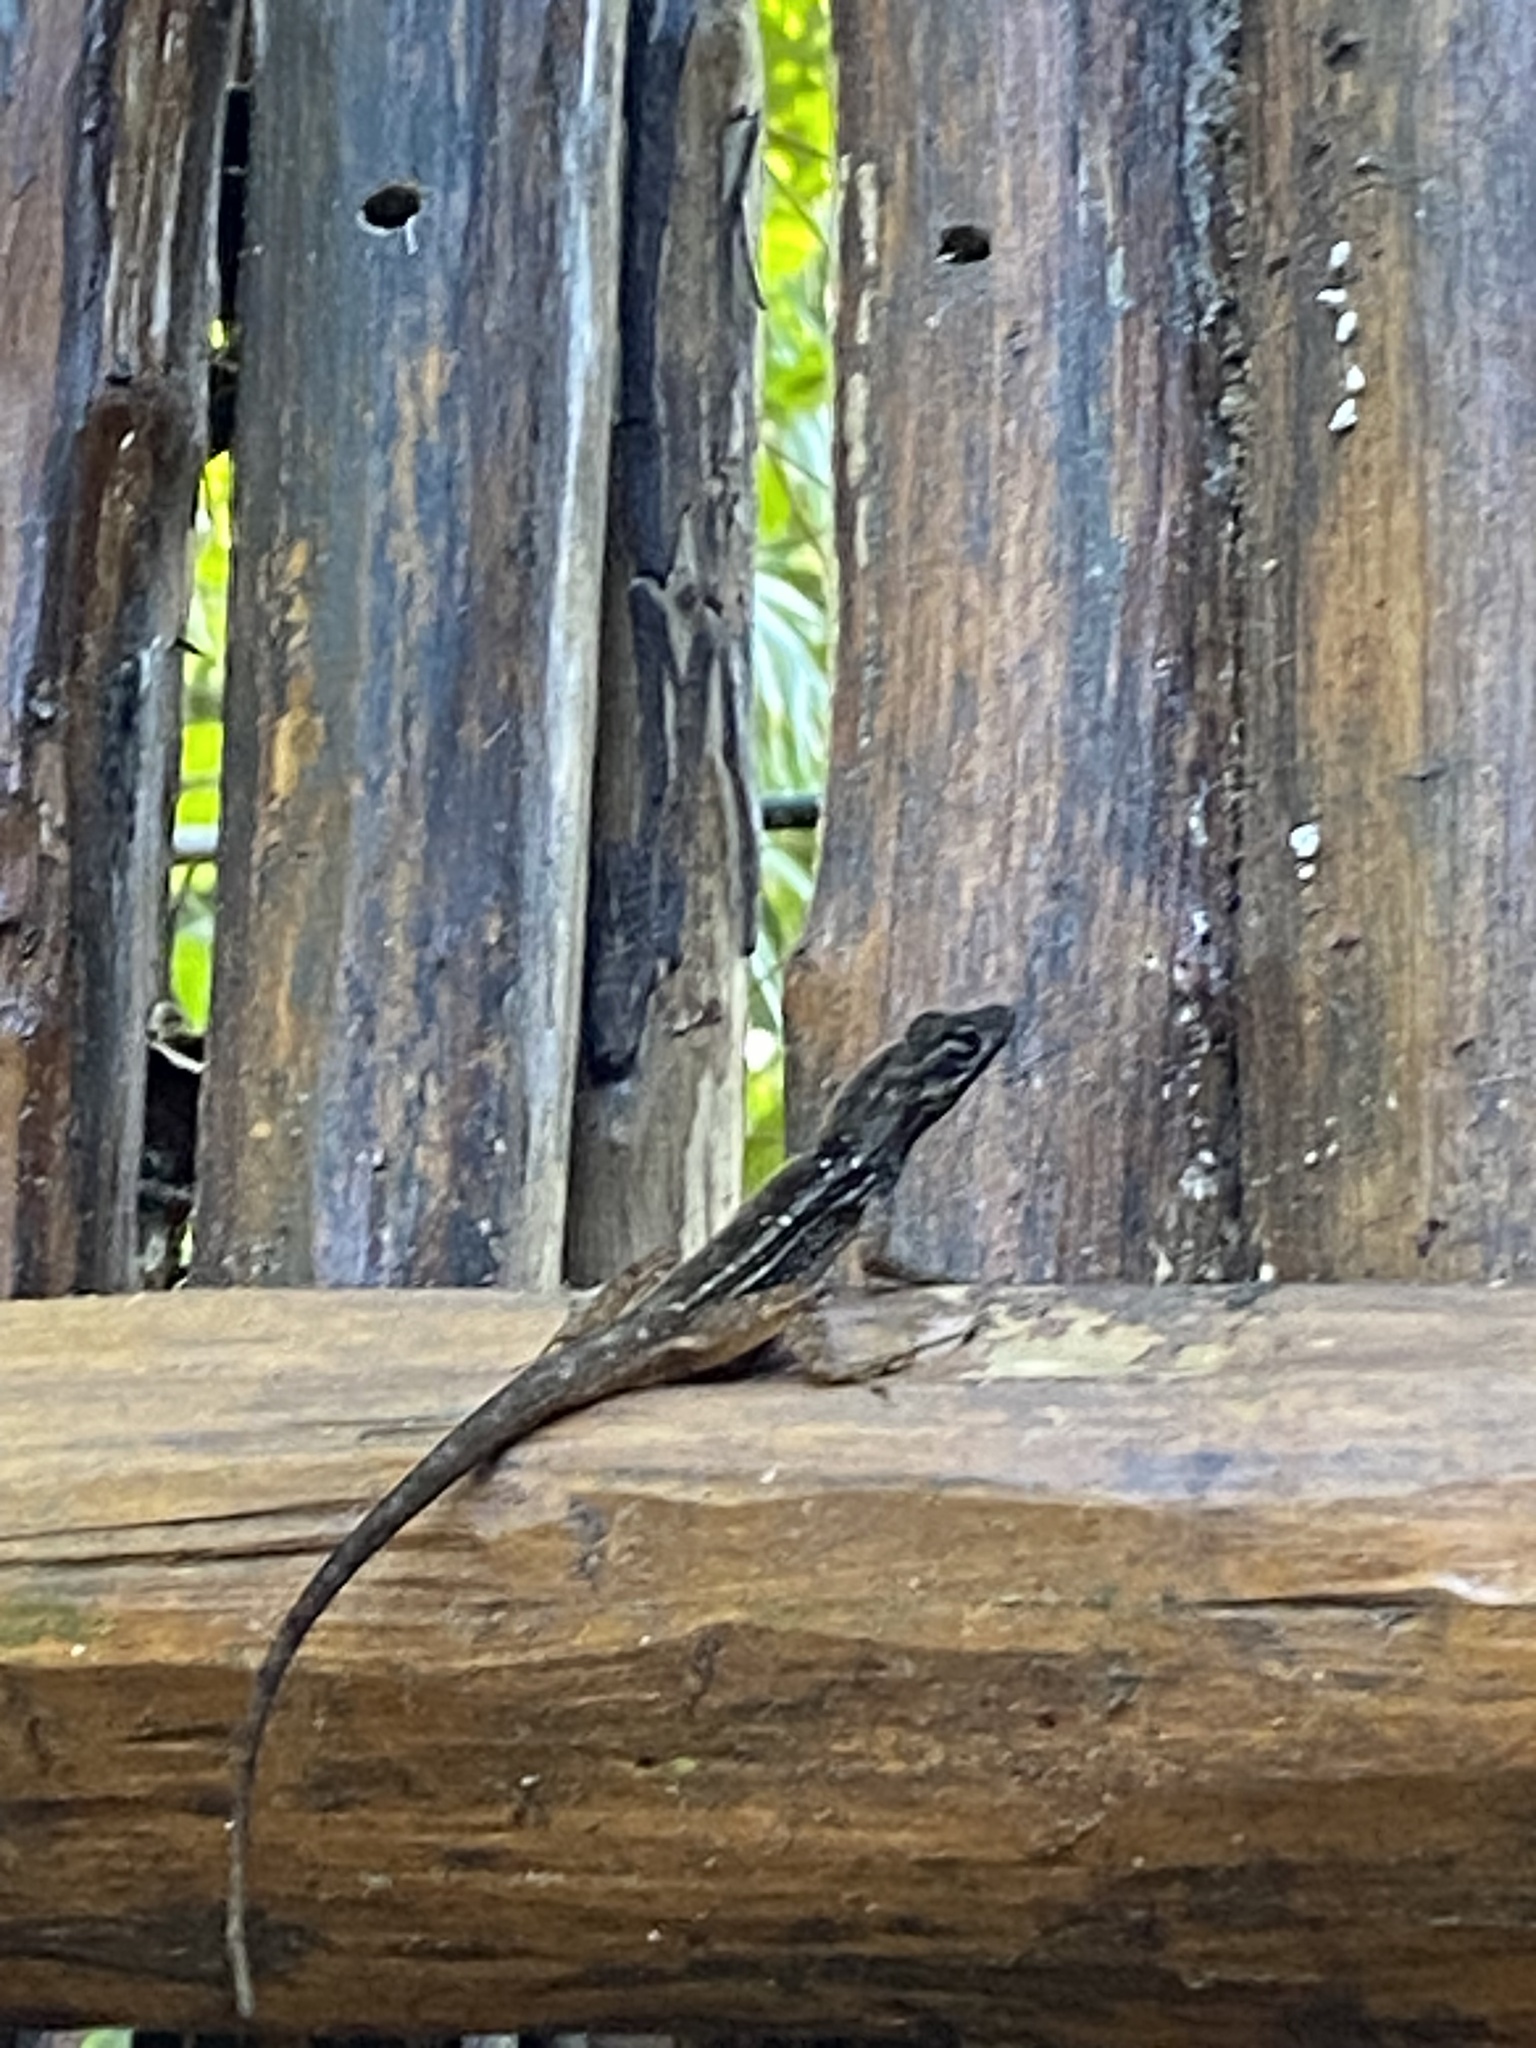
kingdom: Animalia
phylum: Chordata
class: Squamata
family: Dactyloidae
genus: Anolis
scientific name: Anolis sagrei
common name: Brown anole
